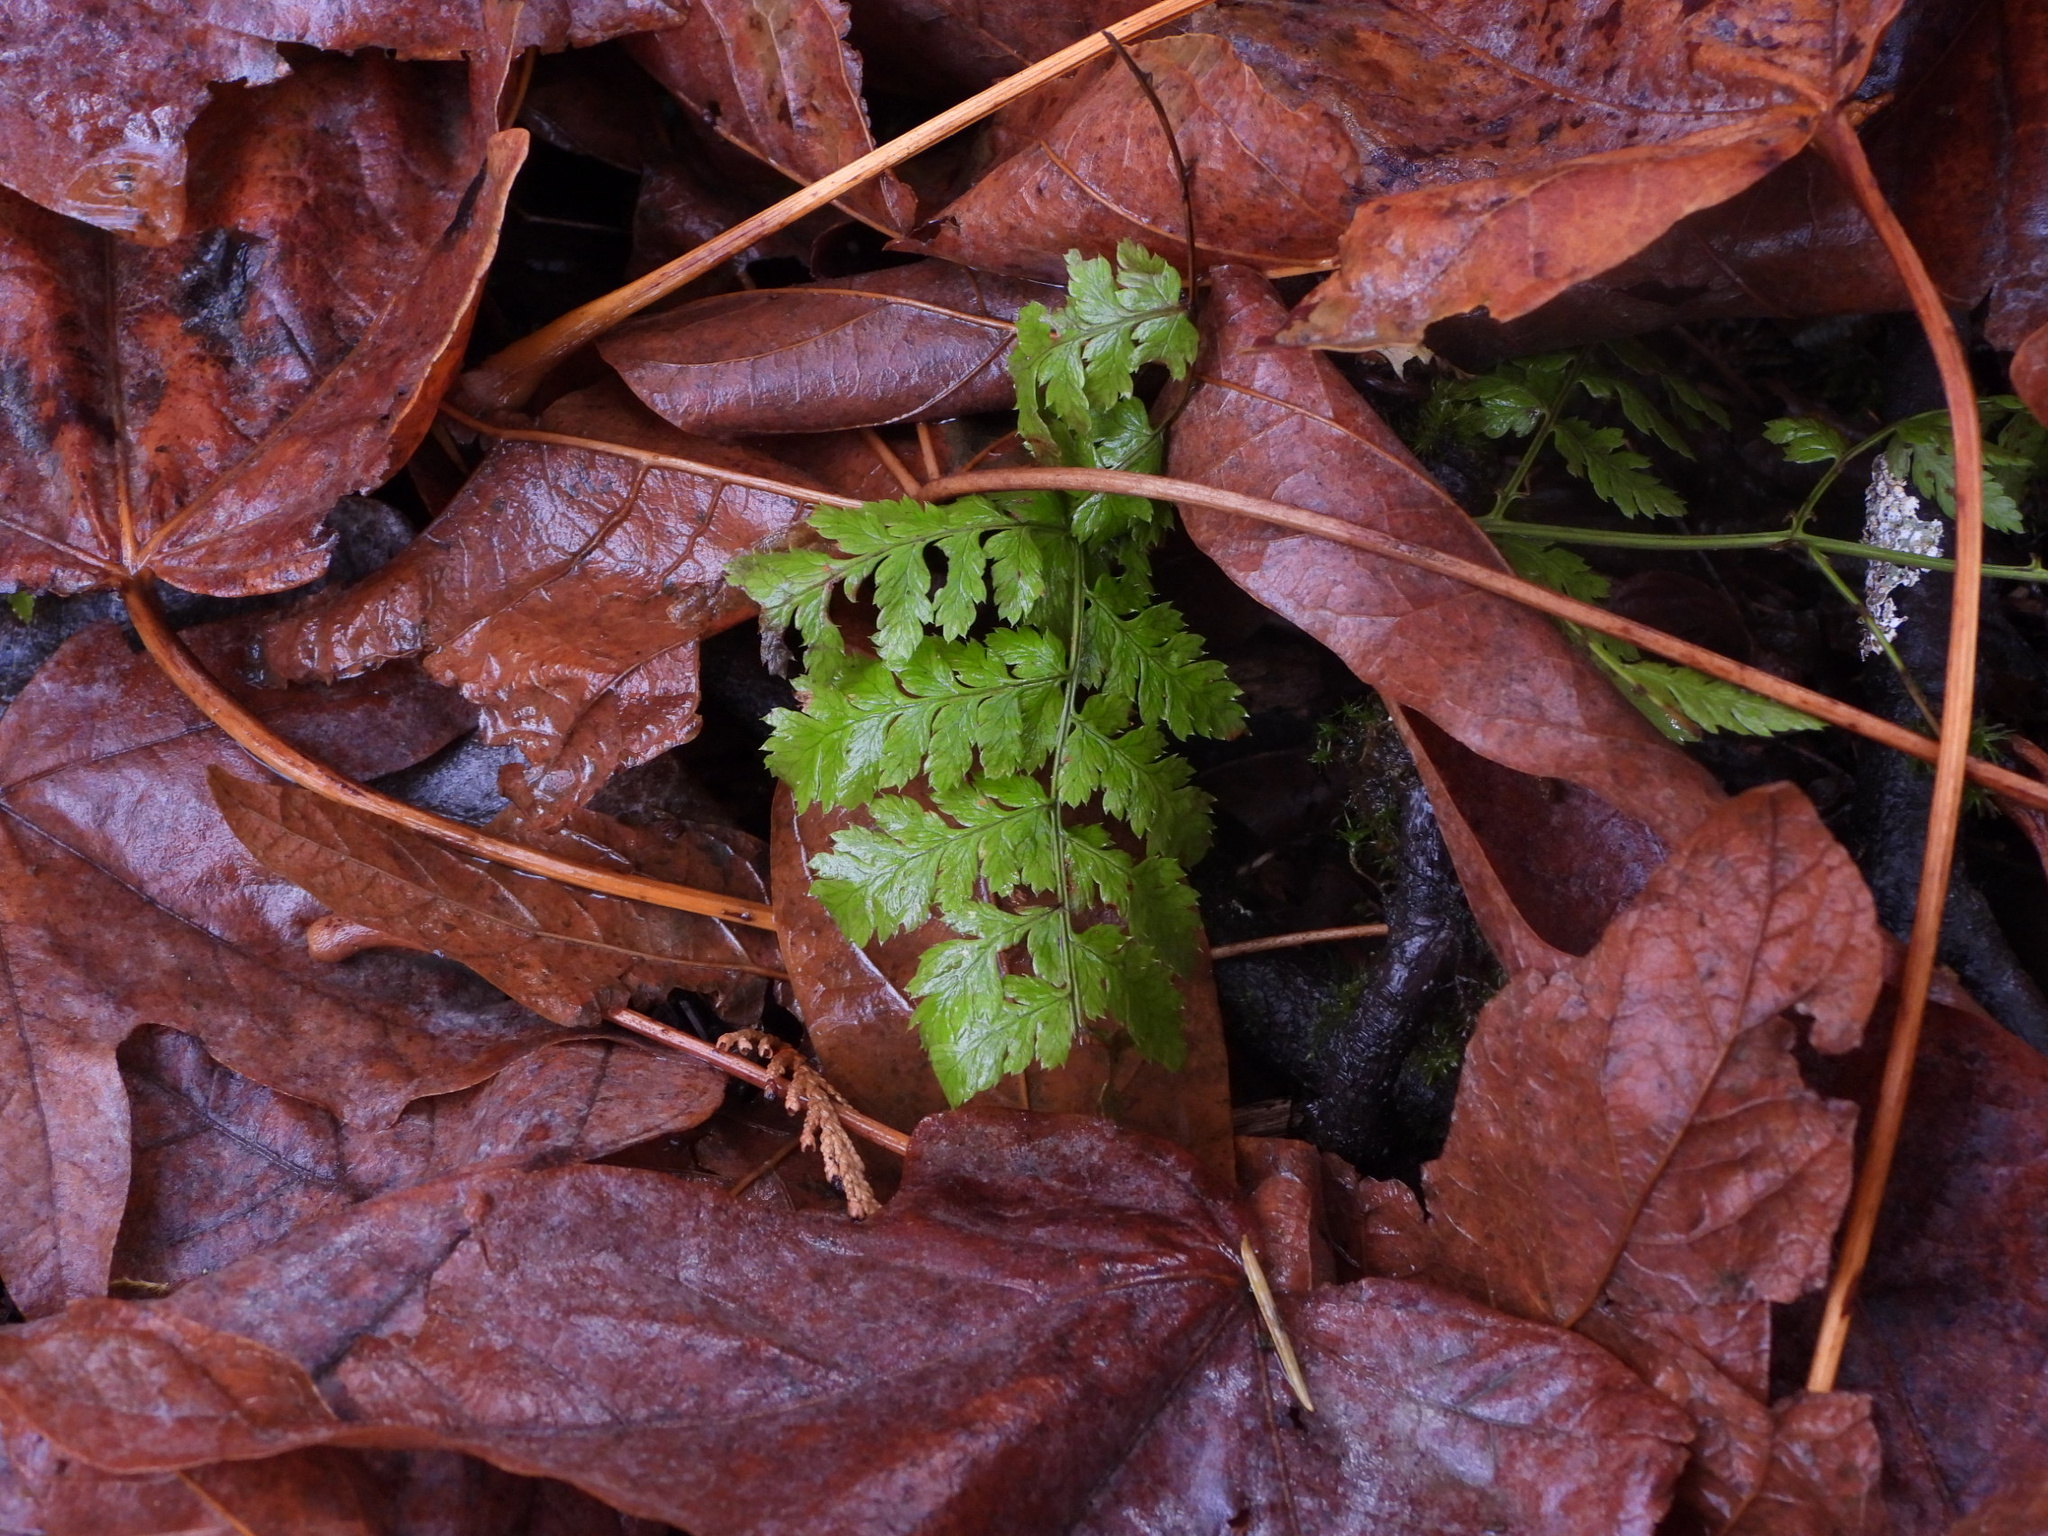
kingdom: Plantae
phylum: Tracheophyta
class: Polypodiopsida
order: Polypodiales
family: Dryopteridaceae
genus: Dryopteris
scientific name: Dryopteris expansa
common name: Northern buckler fern
